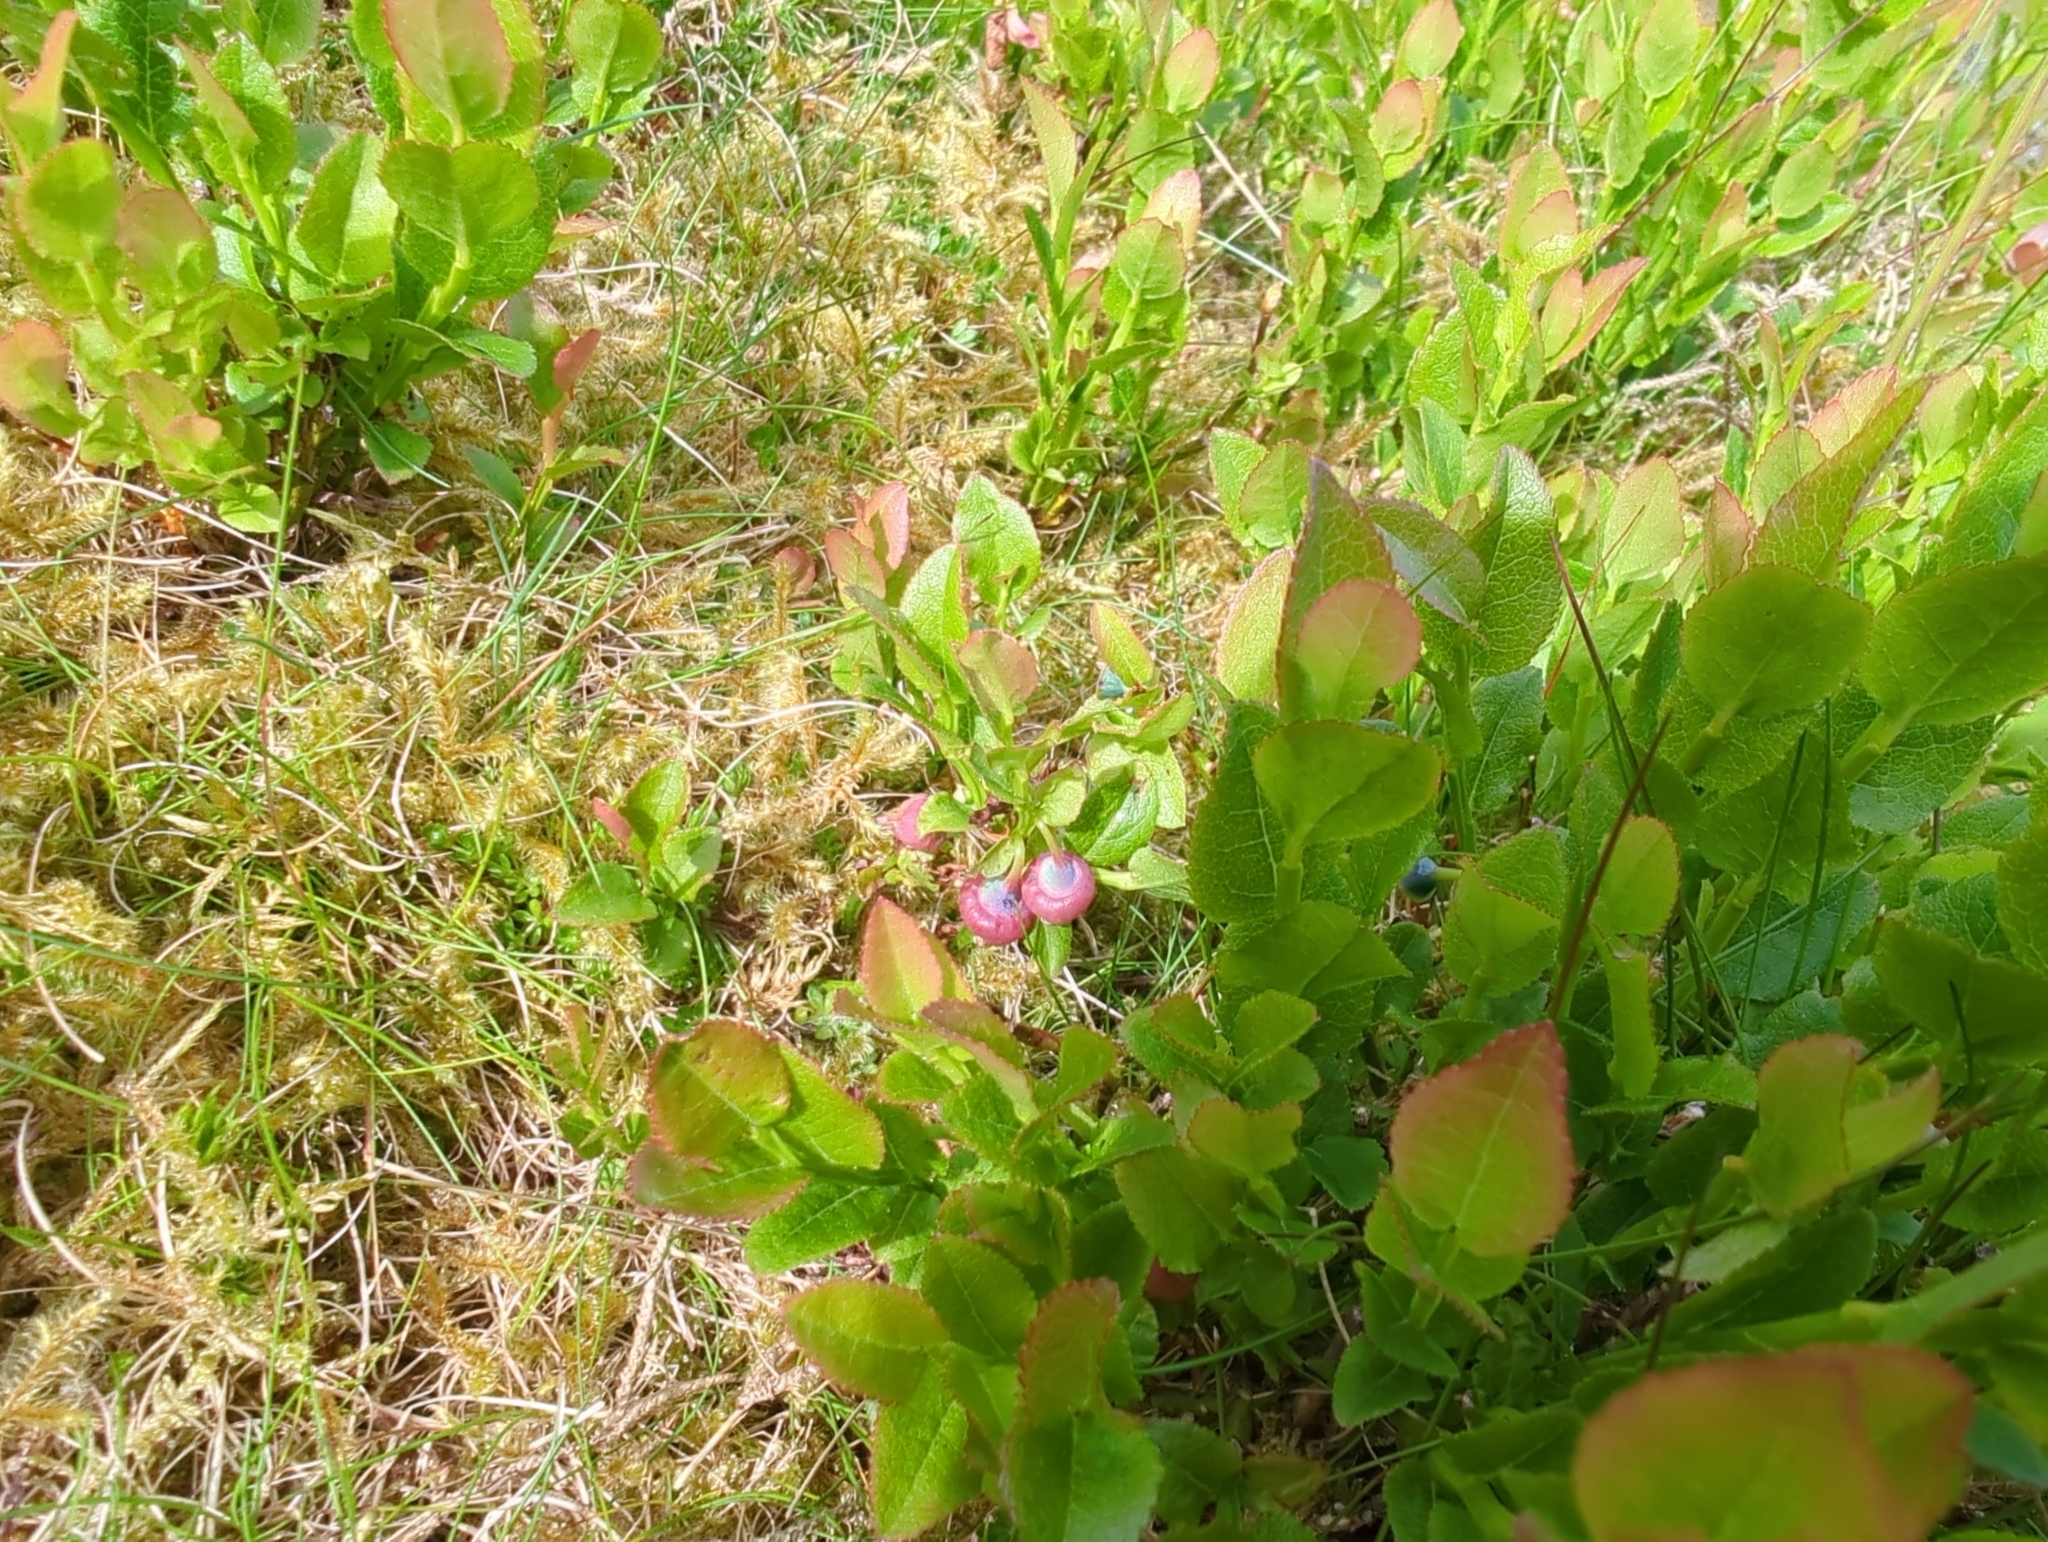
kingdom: Plantae
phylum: Tracheophyta
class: Magnoliopsida
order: Ericales
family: Ericaceae
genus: Vaccinium
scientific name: Vaccinium myrtillus
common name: Bilberry
